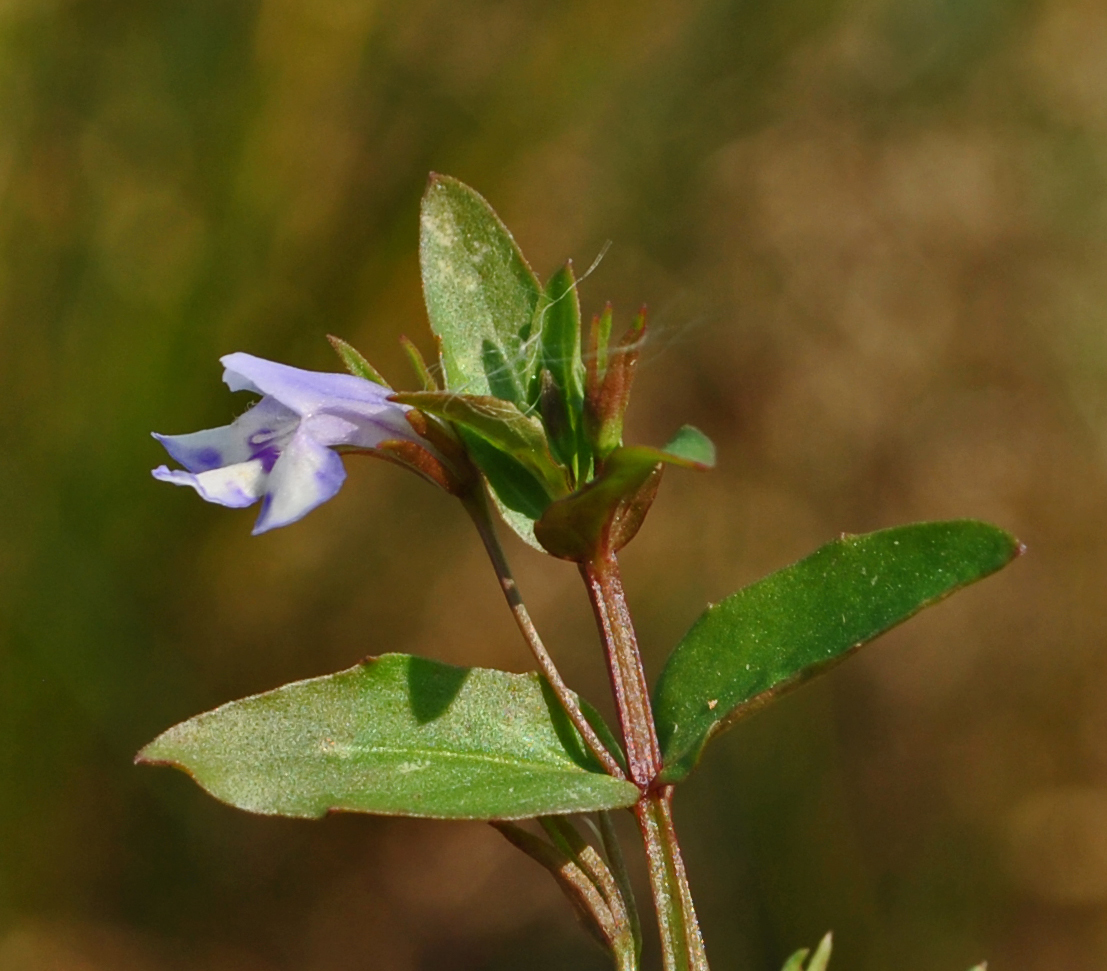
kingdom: Plantae
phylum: Tracheophyta
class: Magnoliopsida
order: Lamiales
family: Linderniaceae
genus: Lindernia
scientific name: Lindernia dubia
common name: Annual false pimpernel
